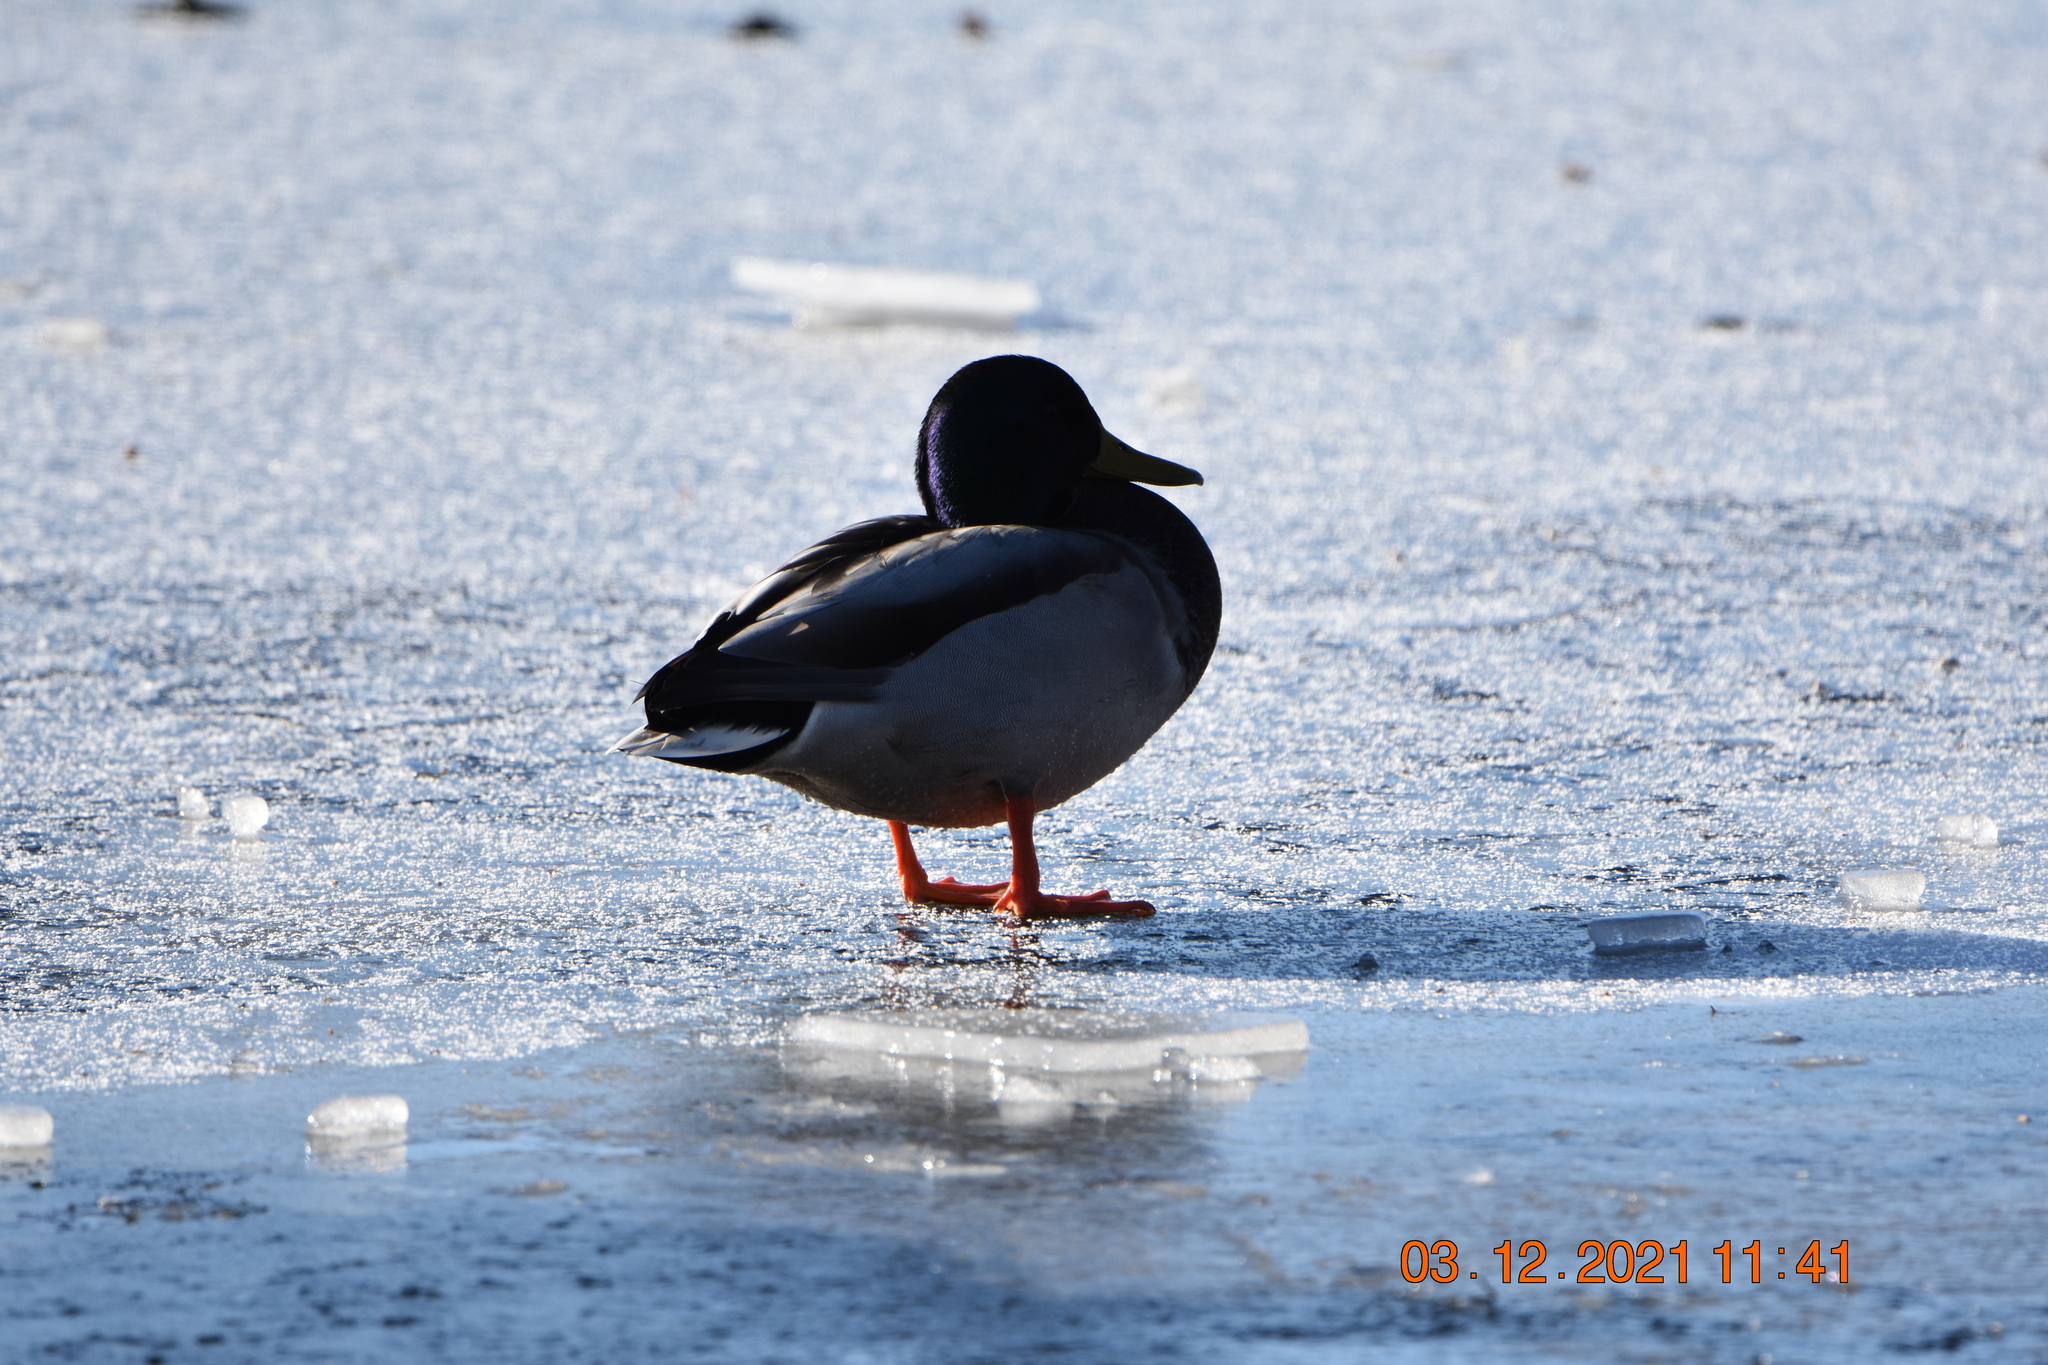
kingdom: Animalia
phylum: Chordata
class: Aves
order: Anseriformes
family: Anatidae
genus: Anas
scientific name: Anas platyrhynchos
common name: Mallard
